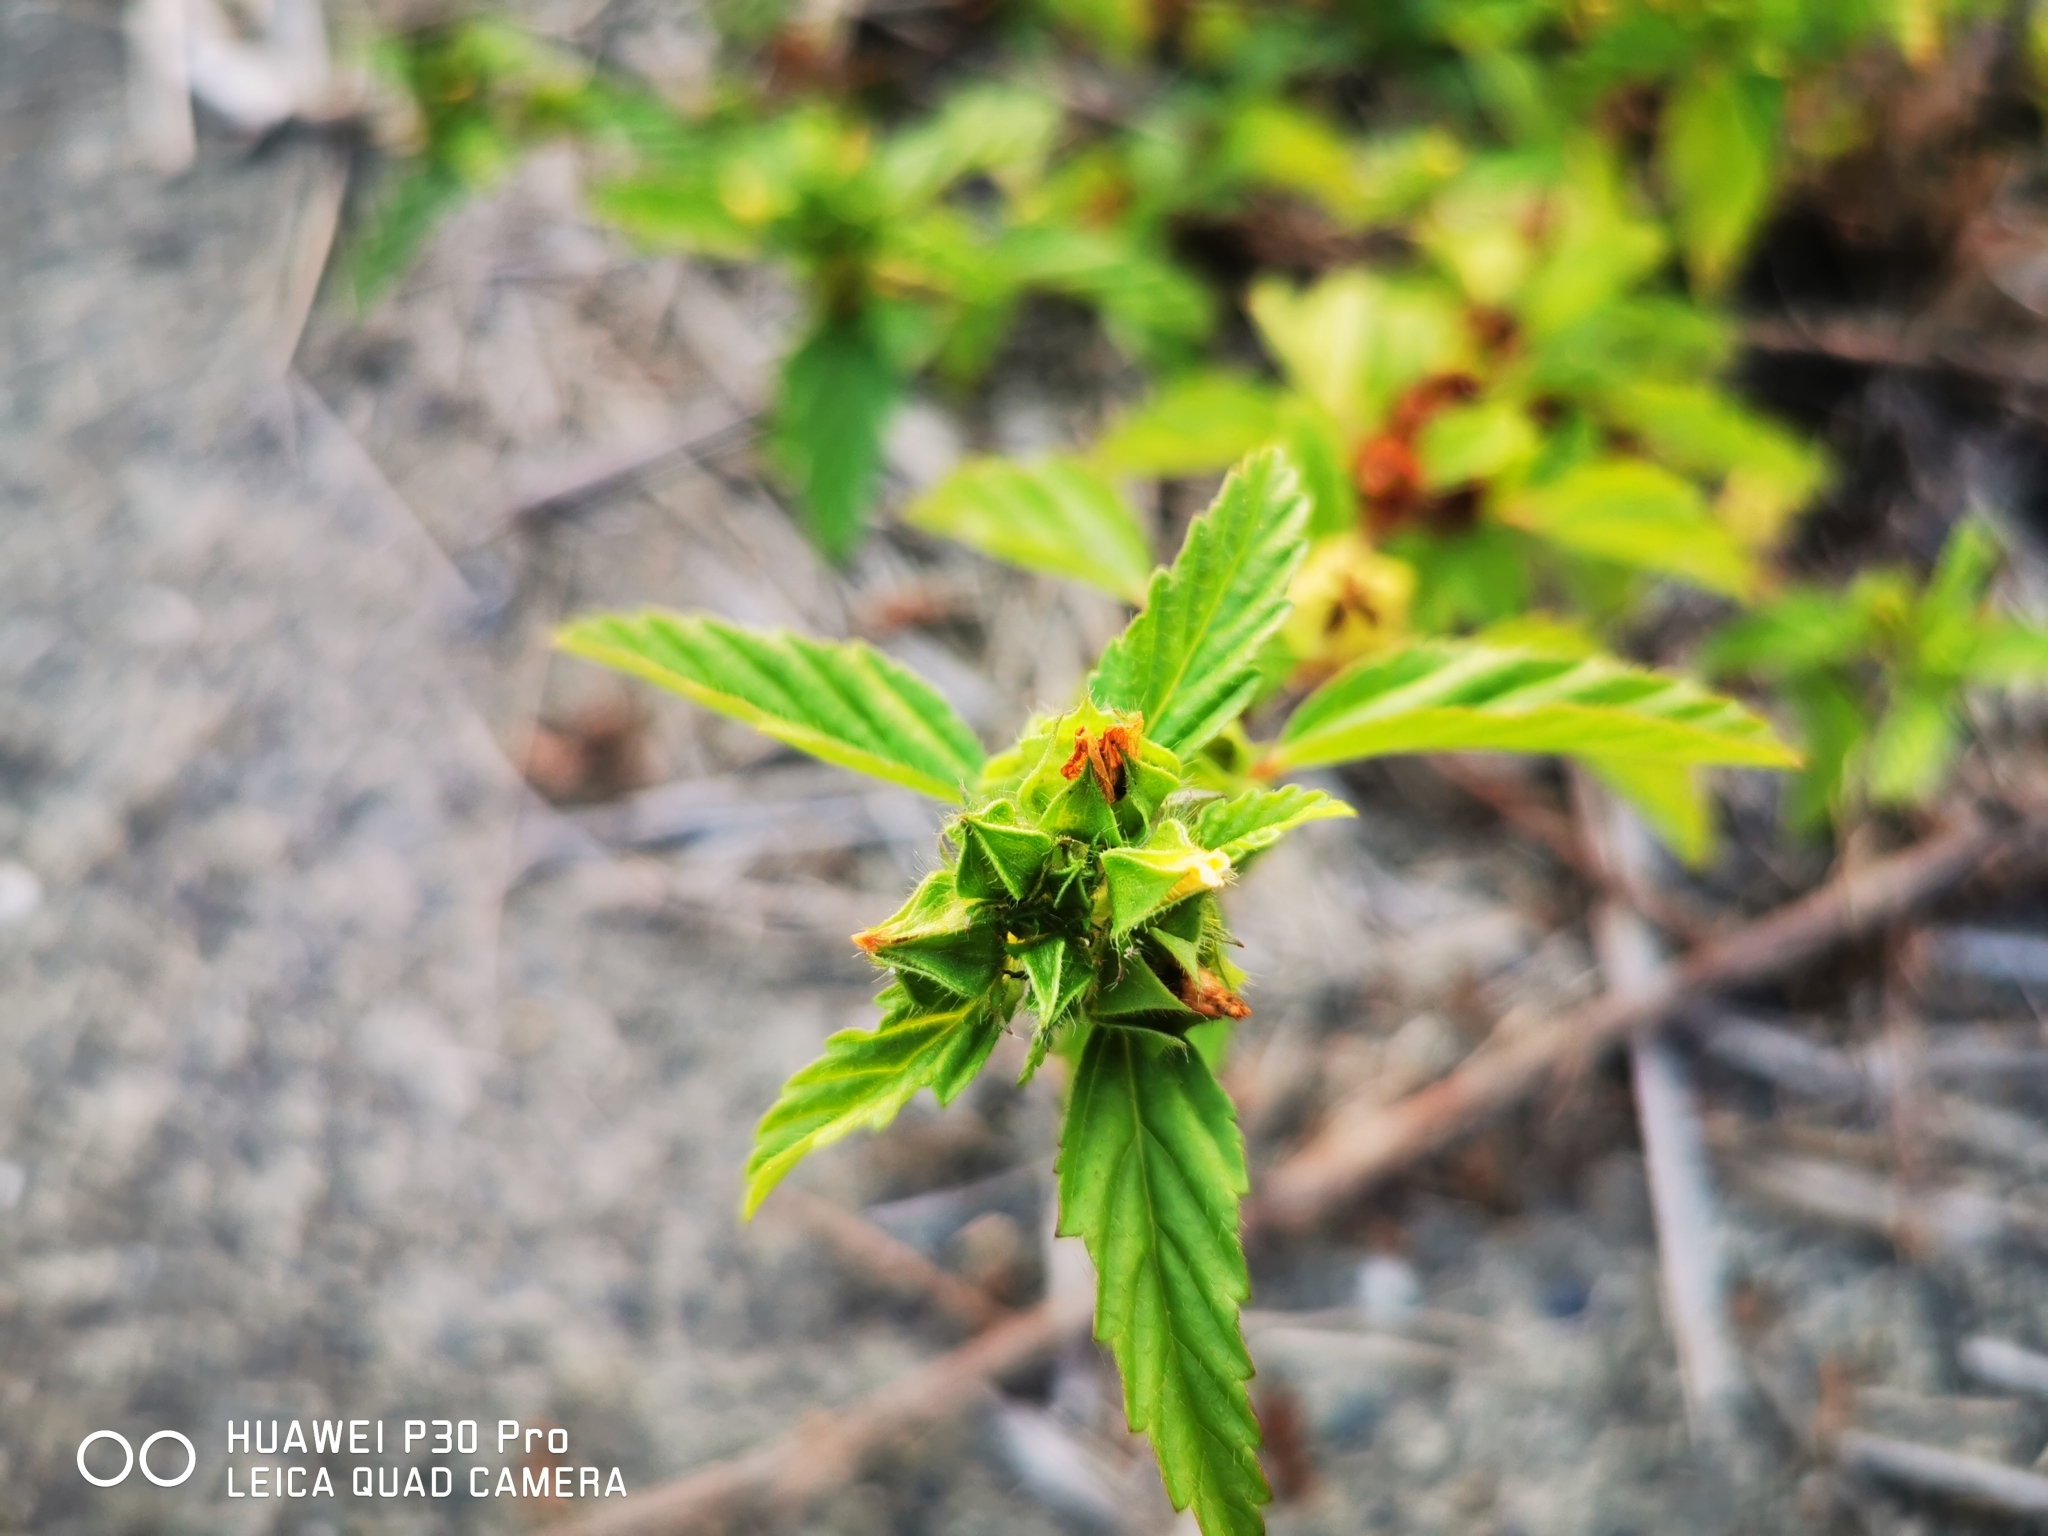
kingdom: Plantae
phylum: Tracheophyta
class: Magnoliopsida
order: Malvales
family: Malvaceae
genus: Malvastrum
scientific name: Malvastrum coromandelianum
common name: Threelobe false mallow
